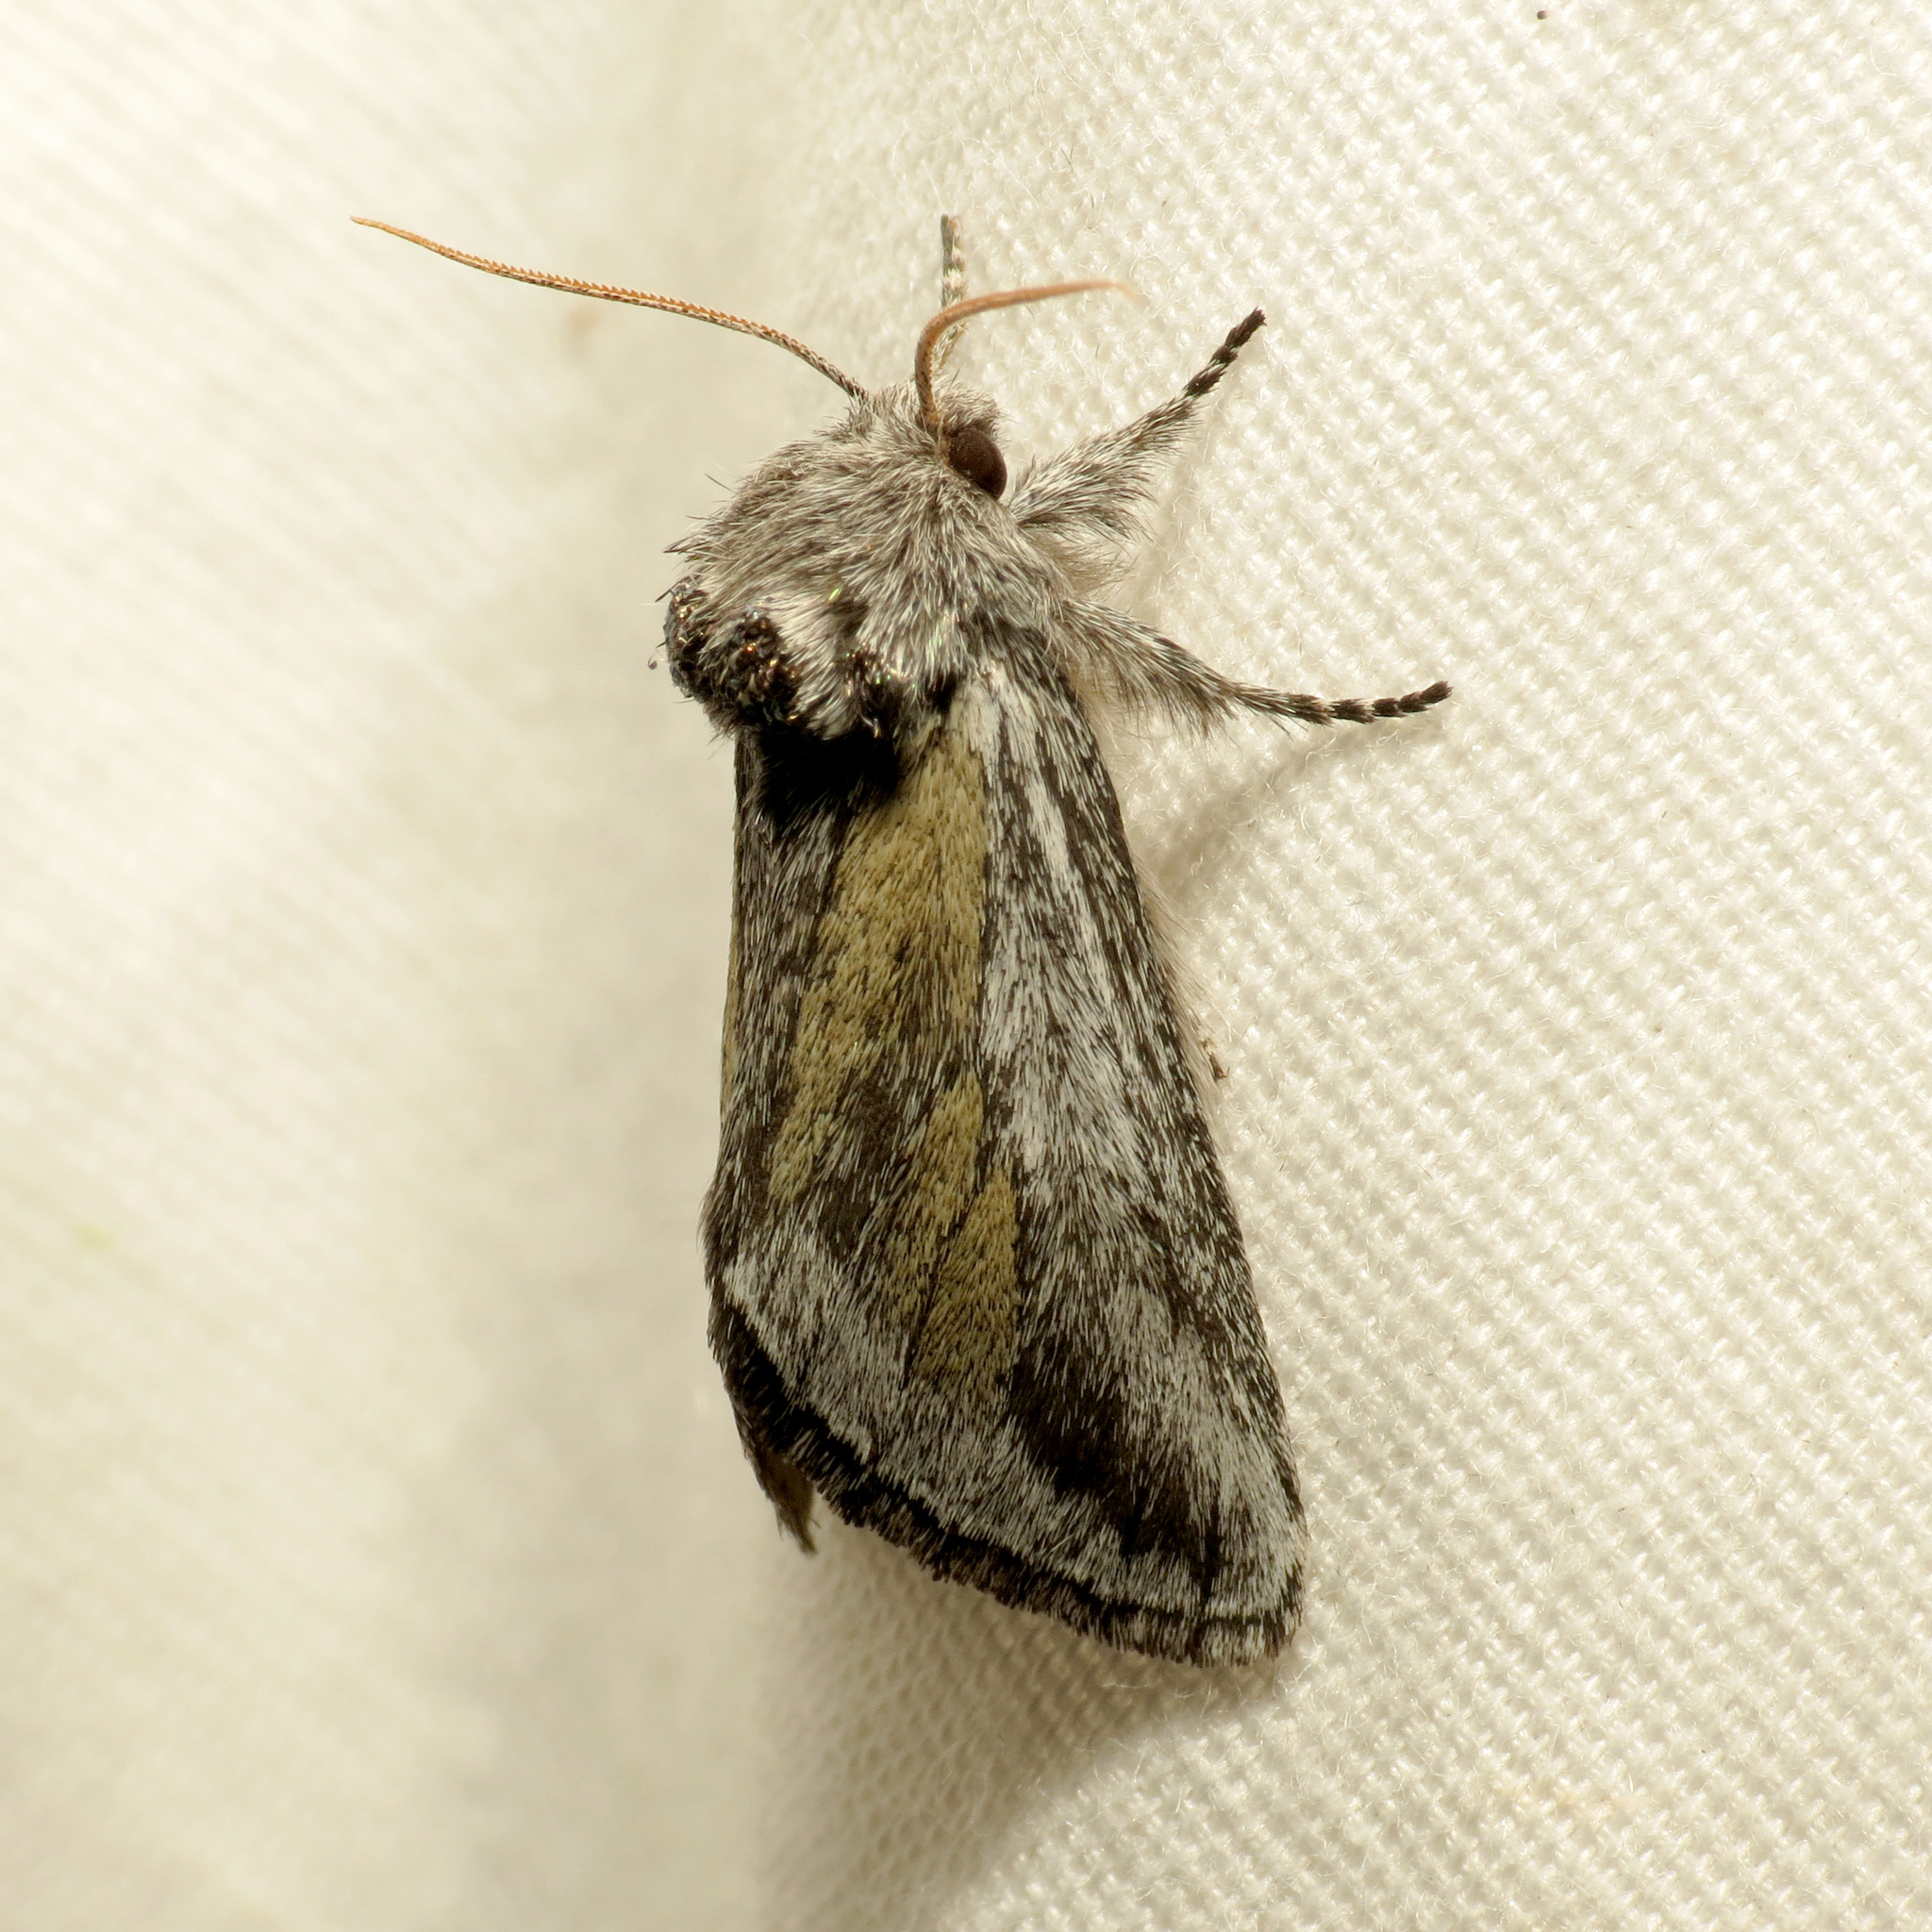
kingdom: Animalia
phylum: Arthropoda
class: Insecta
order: Lepidoptera
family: Notodontidae
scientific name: Notodontidae
